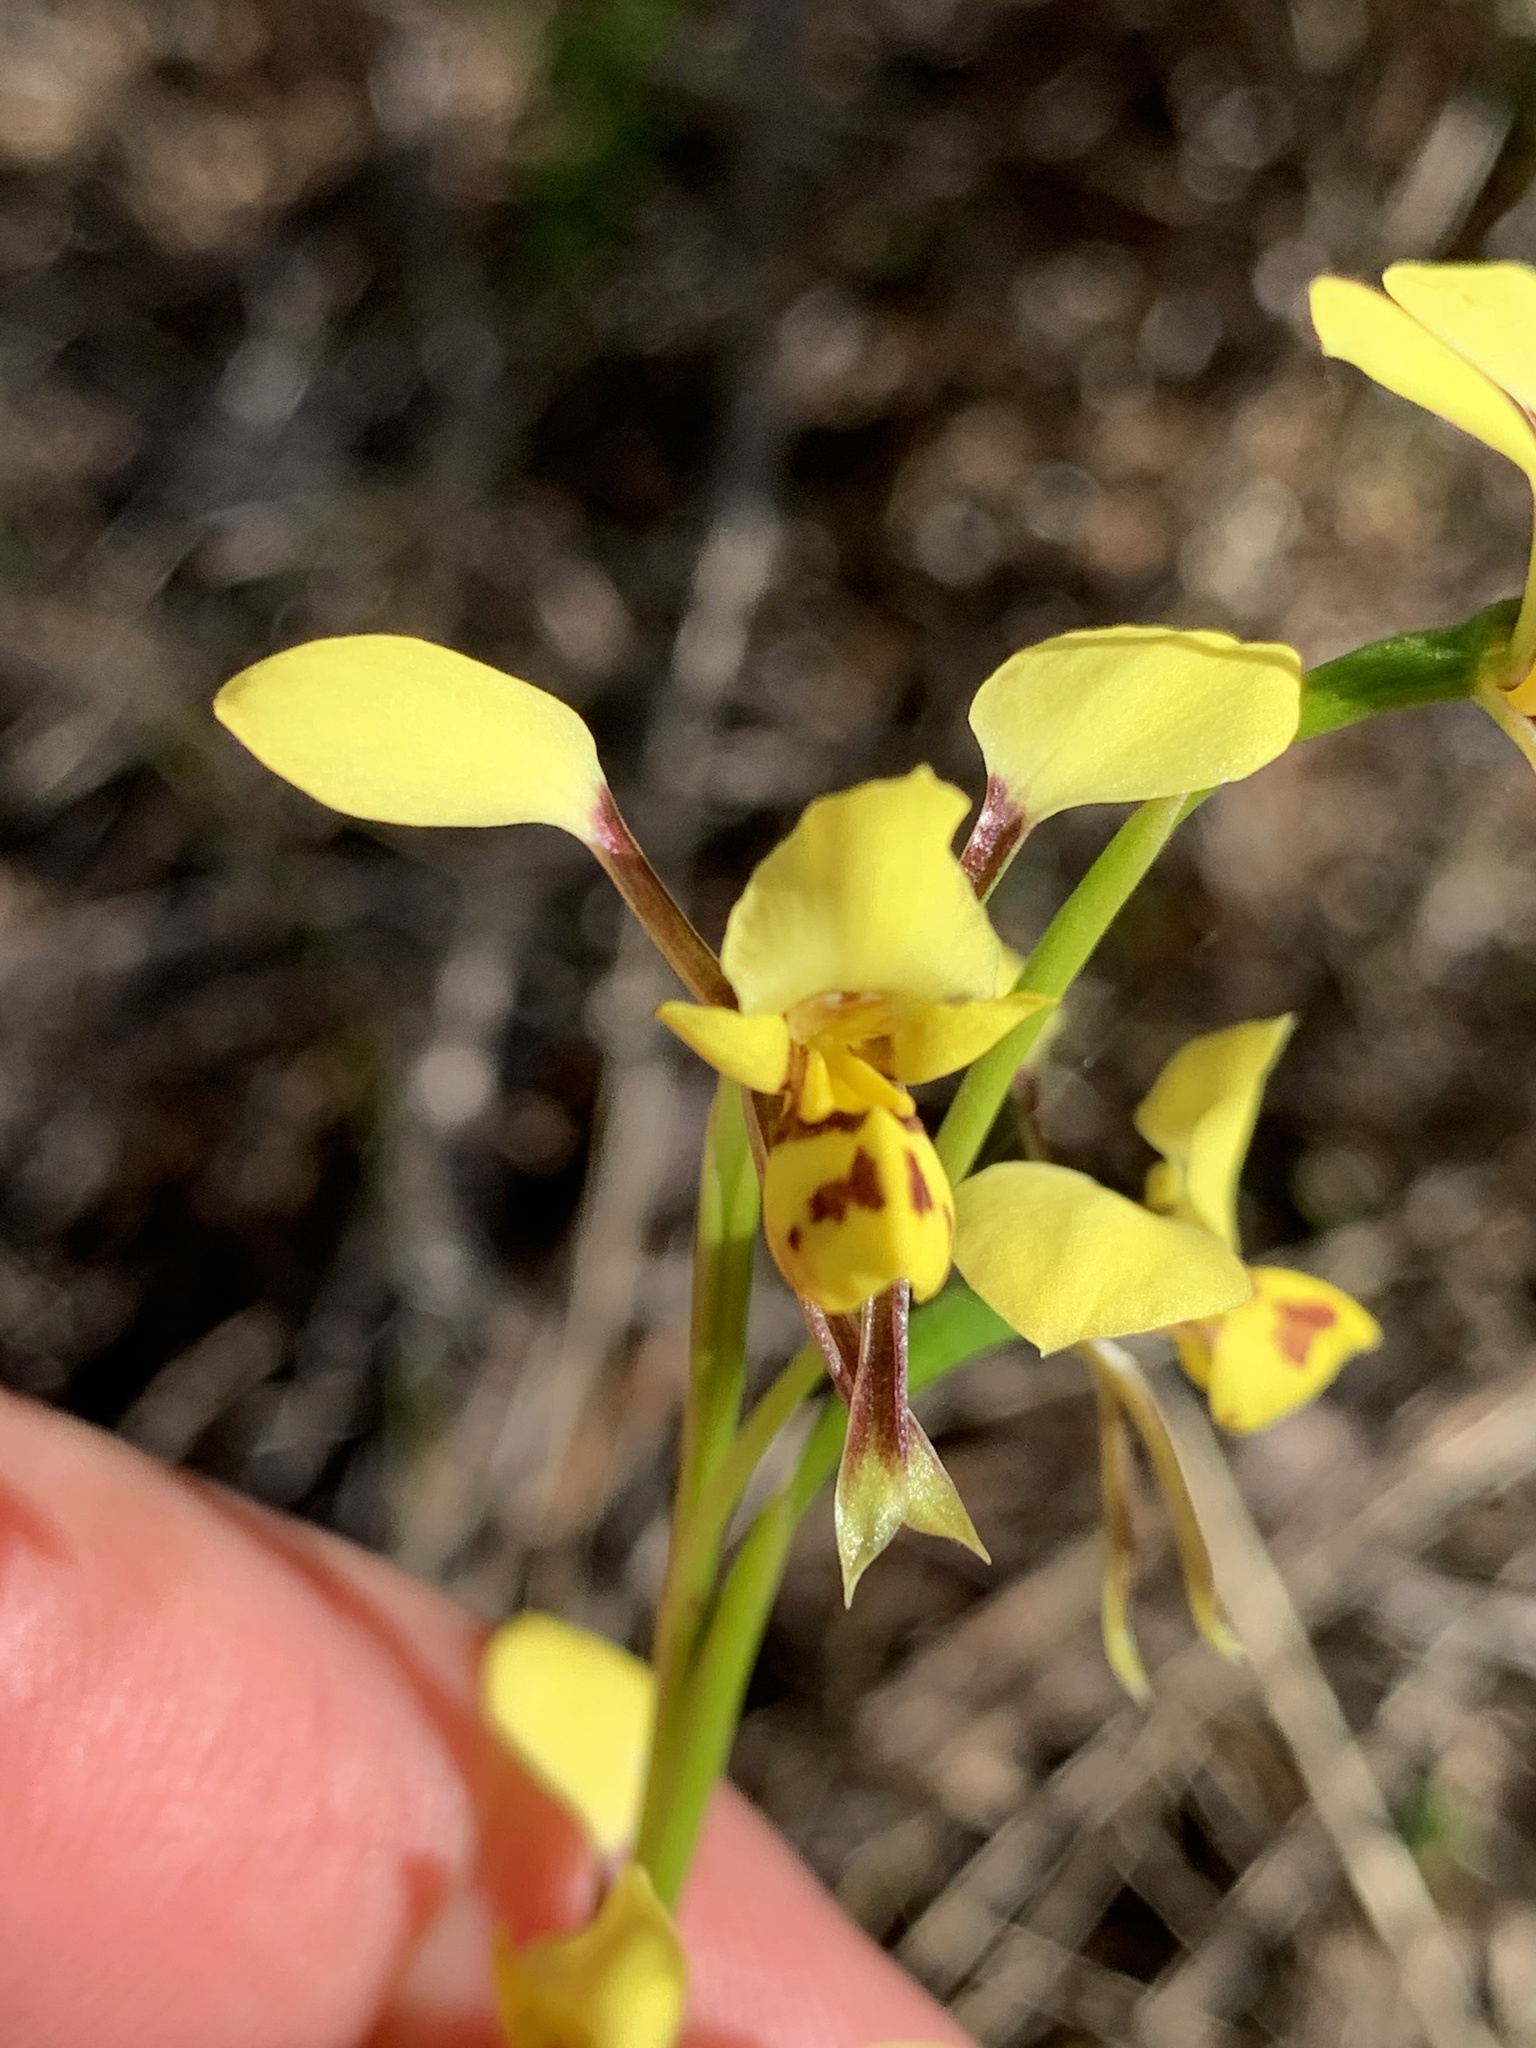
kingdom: Plantae
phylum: Tracheophyta
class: Liliopsida
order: Asparagales
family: Orchidaceae
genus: Diuris
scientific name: Diuris platichila
